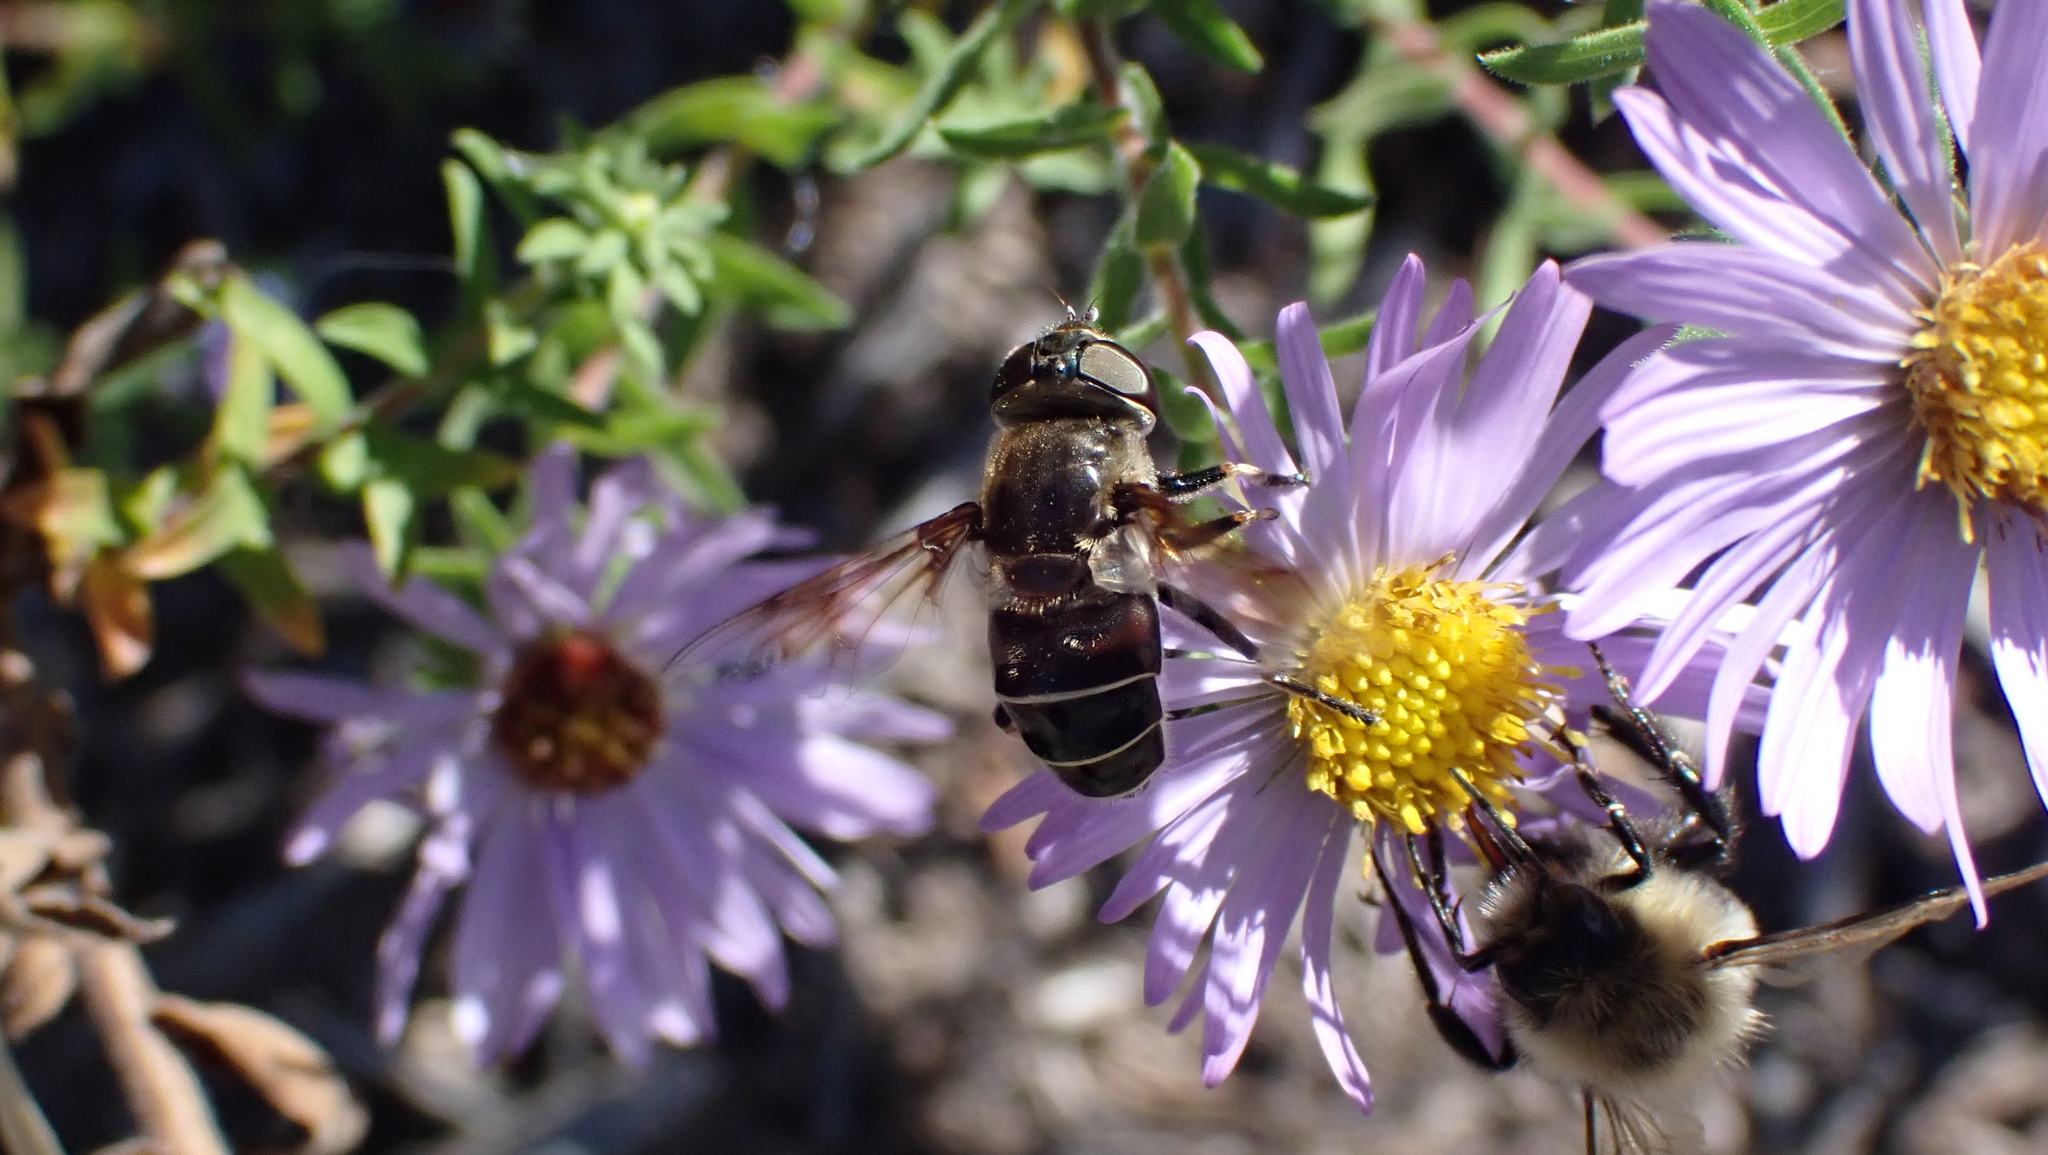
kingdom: Animalia
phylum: Arthropoda
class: Insecta
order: Diptera
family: Syrphidae
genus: Eristalis
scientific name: Eristalis dimidiata
